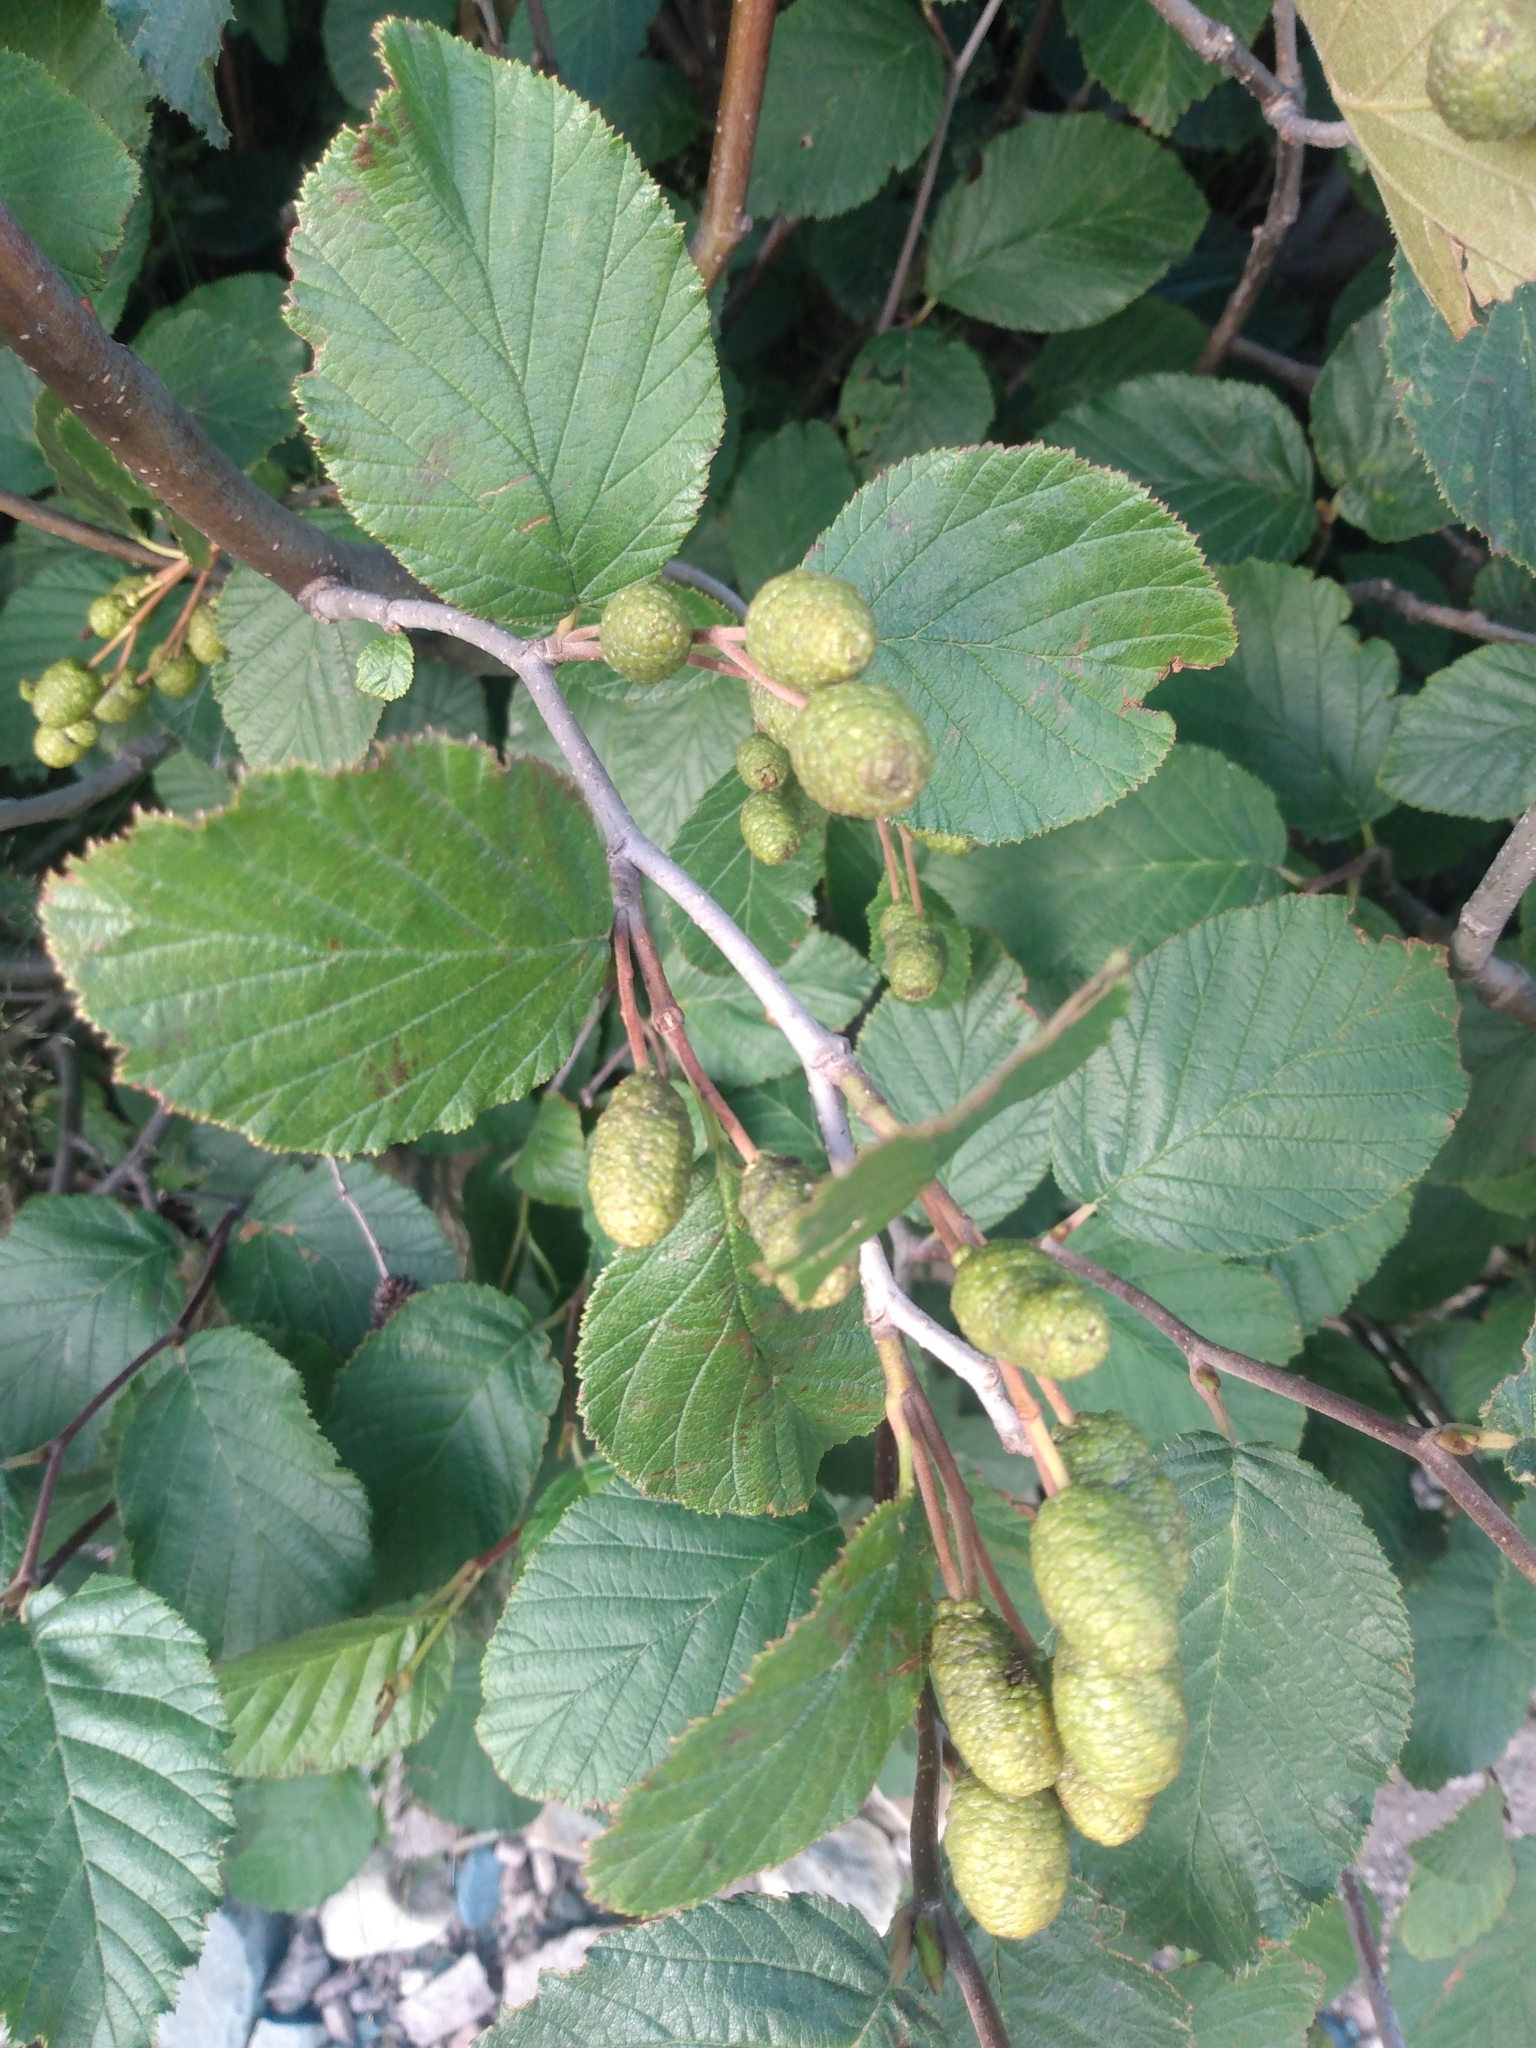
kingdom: Plantae
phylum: Tracheophyta
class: Magnoliopsida
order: Fagales
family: Betulaceae
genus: Alnus
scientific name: Alnus alnobetula
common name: Green alder
